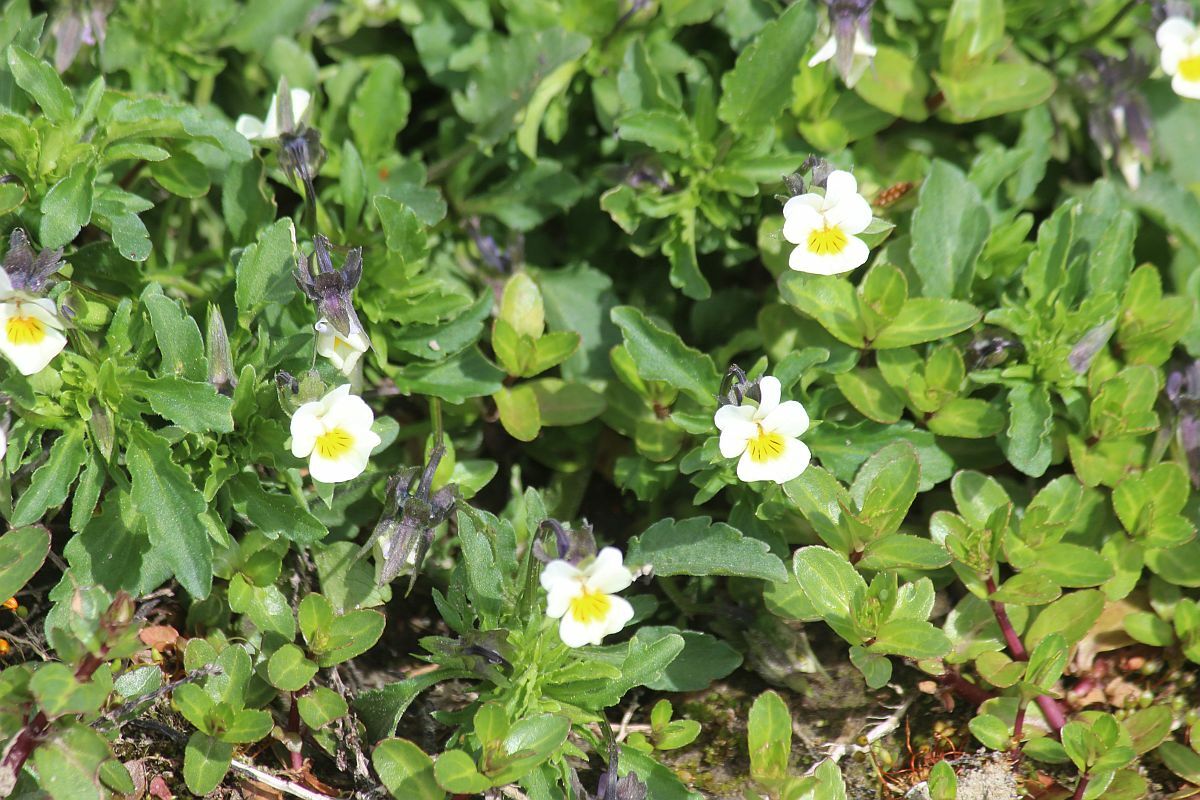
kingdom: Plantae
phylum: Tracheophyta
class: Magnoliopsida
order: Malpighiales
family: Violaceae
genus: Viola
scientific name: Viola arvensis
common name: Field pansy
